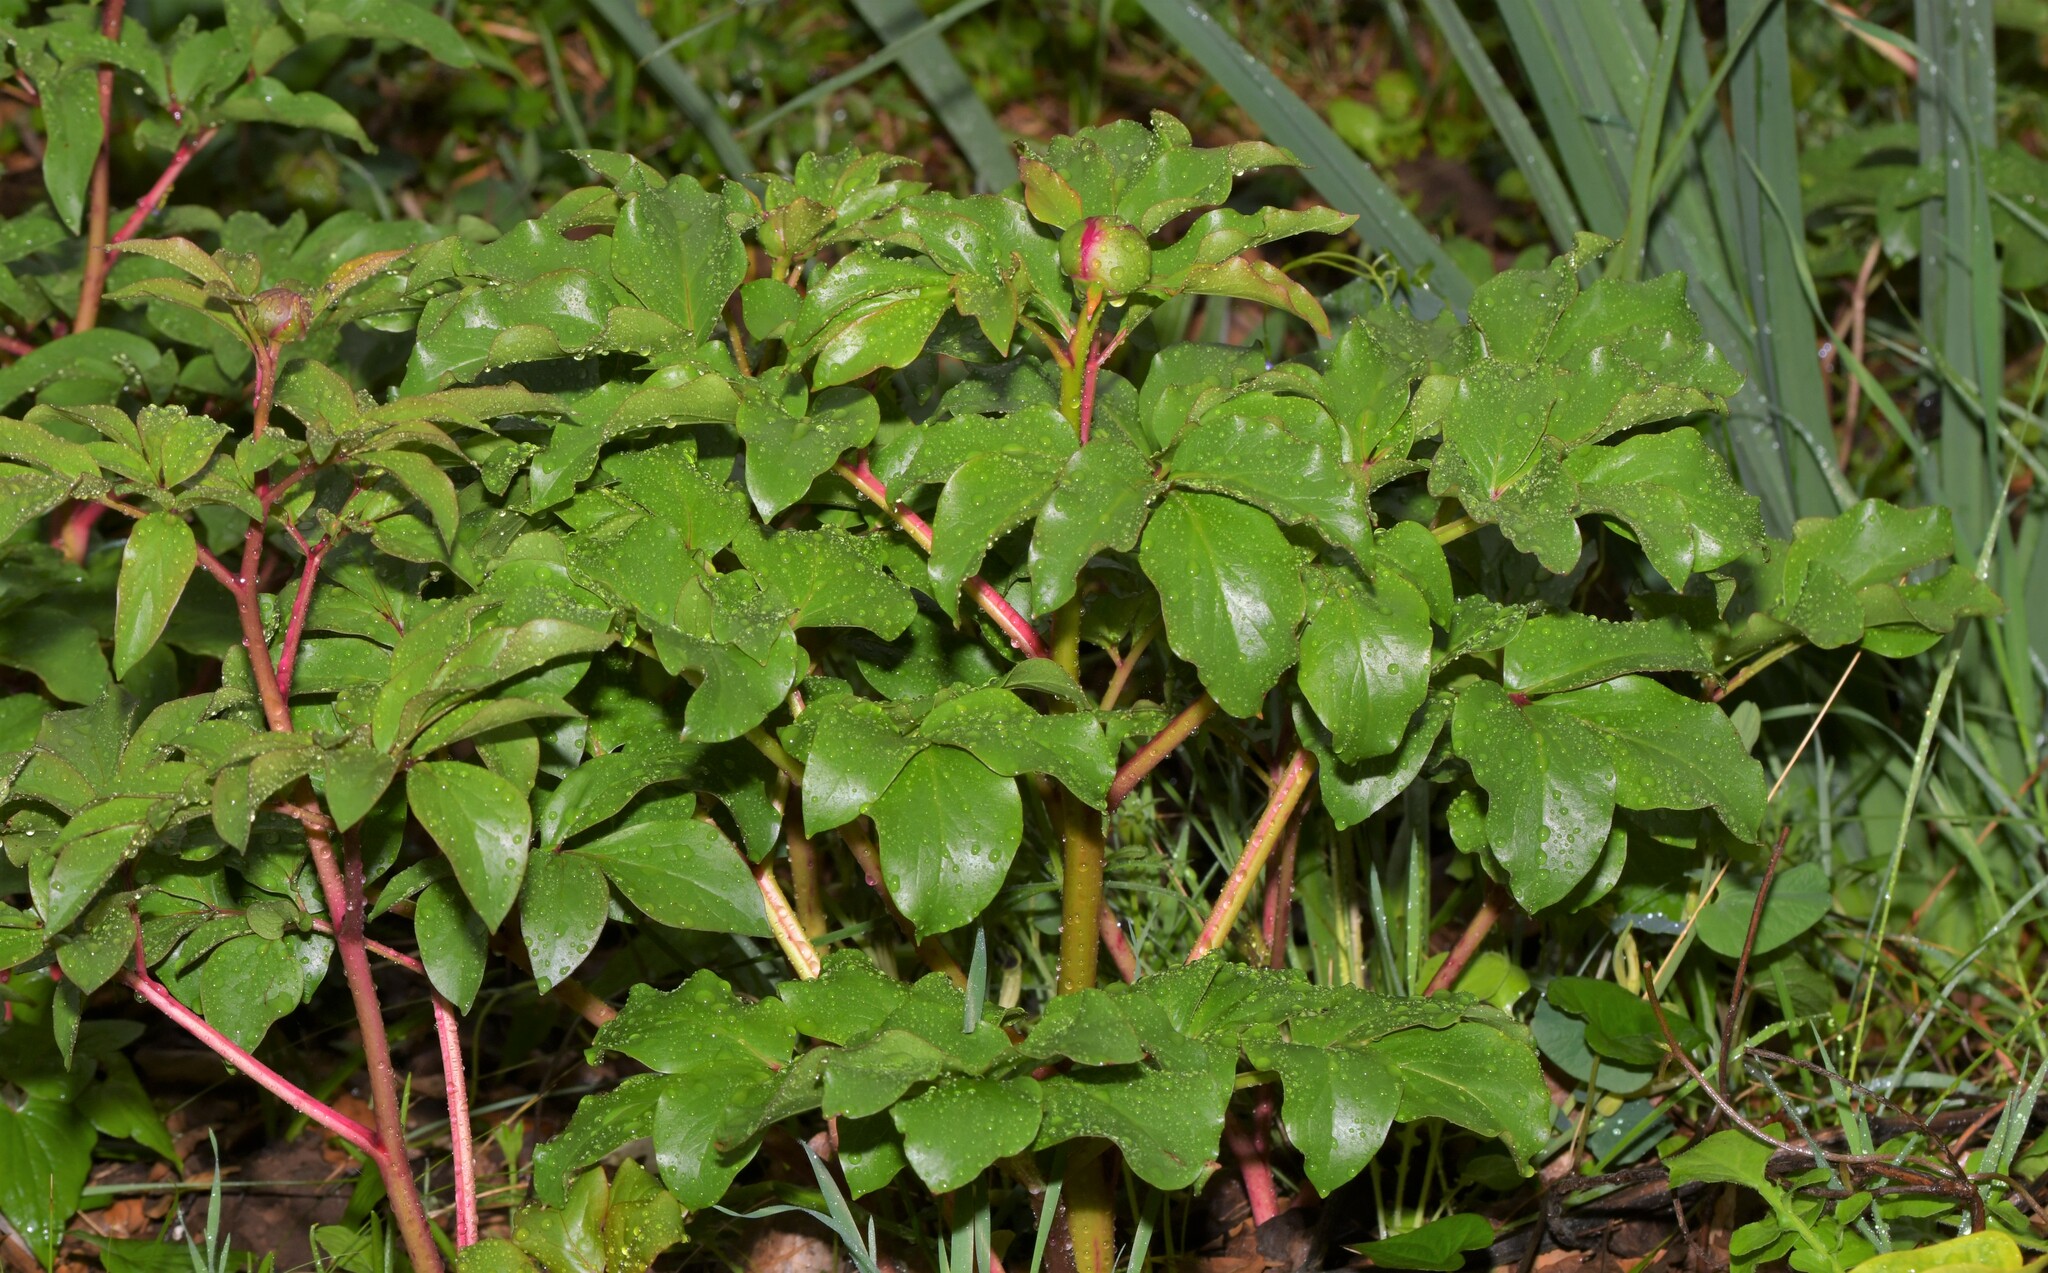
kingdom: Plantae
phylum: Tracheophyta
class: Magnoliopsida
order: Saxifragales
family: Paeoniaceae
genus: Paeonia
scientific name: Paeonia broteroi
